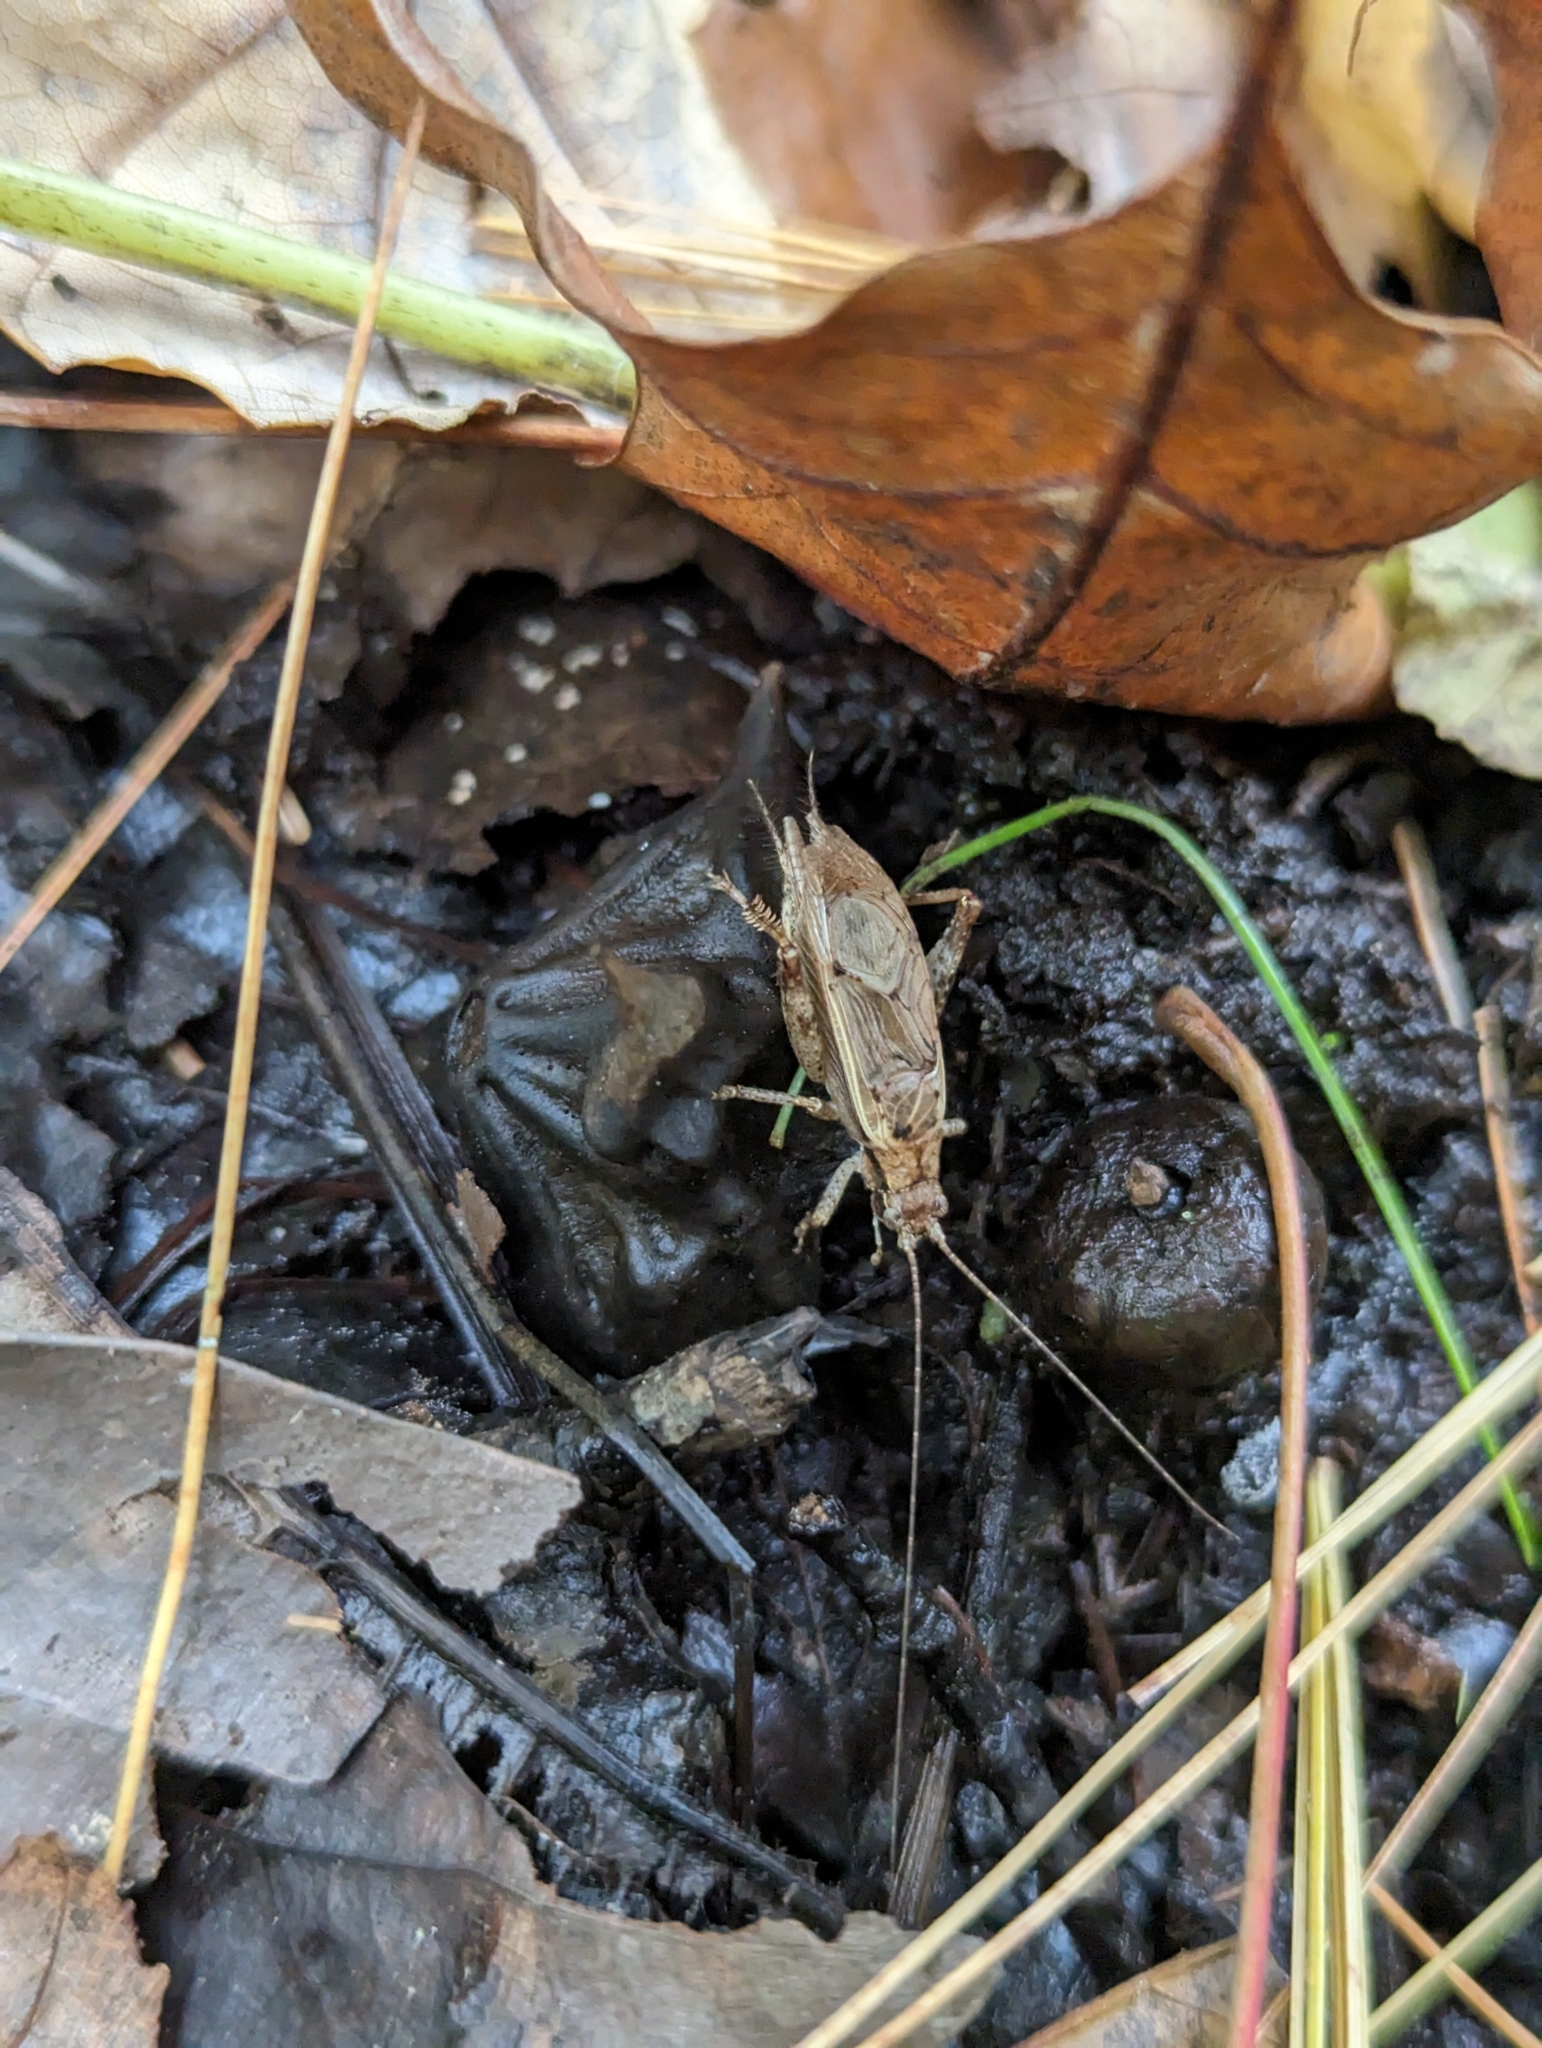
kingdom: Animalia
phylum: Arthropoda
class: Insecta
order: Orthoptera
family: Gryllidae
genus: Hapithus
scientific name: Hapithus saltator
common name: Jumping bush cricket
